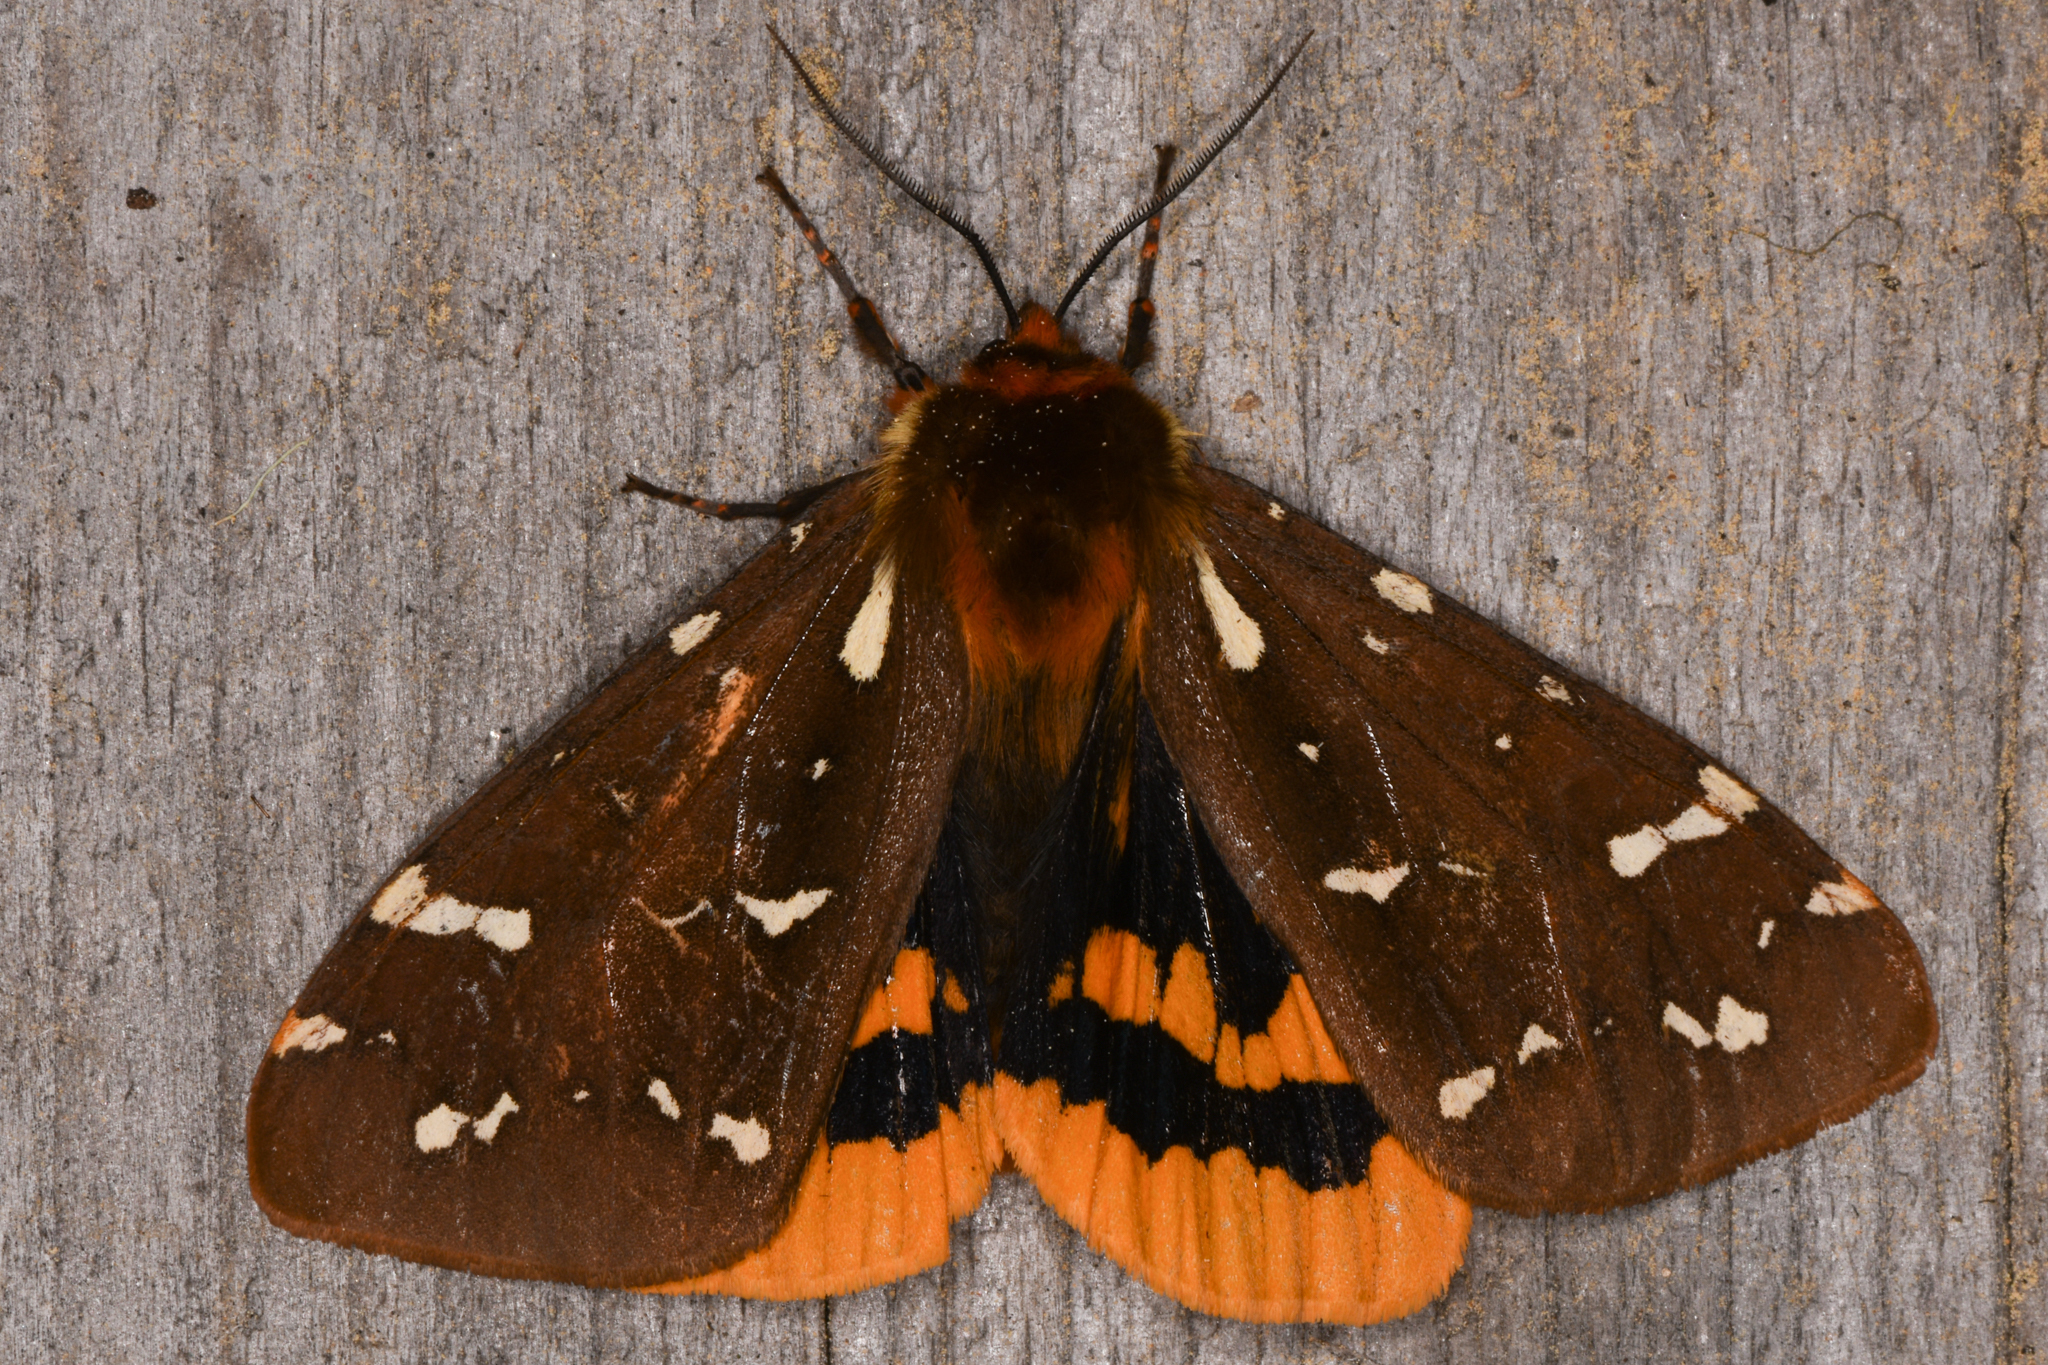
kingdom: Animalia
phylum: Arthropoda
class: Insecta
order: Lepidoptera
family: Erebidae
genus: Arctia
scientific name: Arctia parthenos
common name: St. lawrence tiger moth
